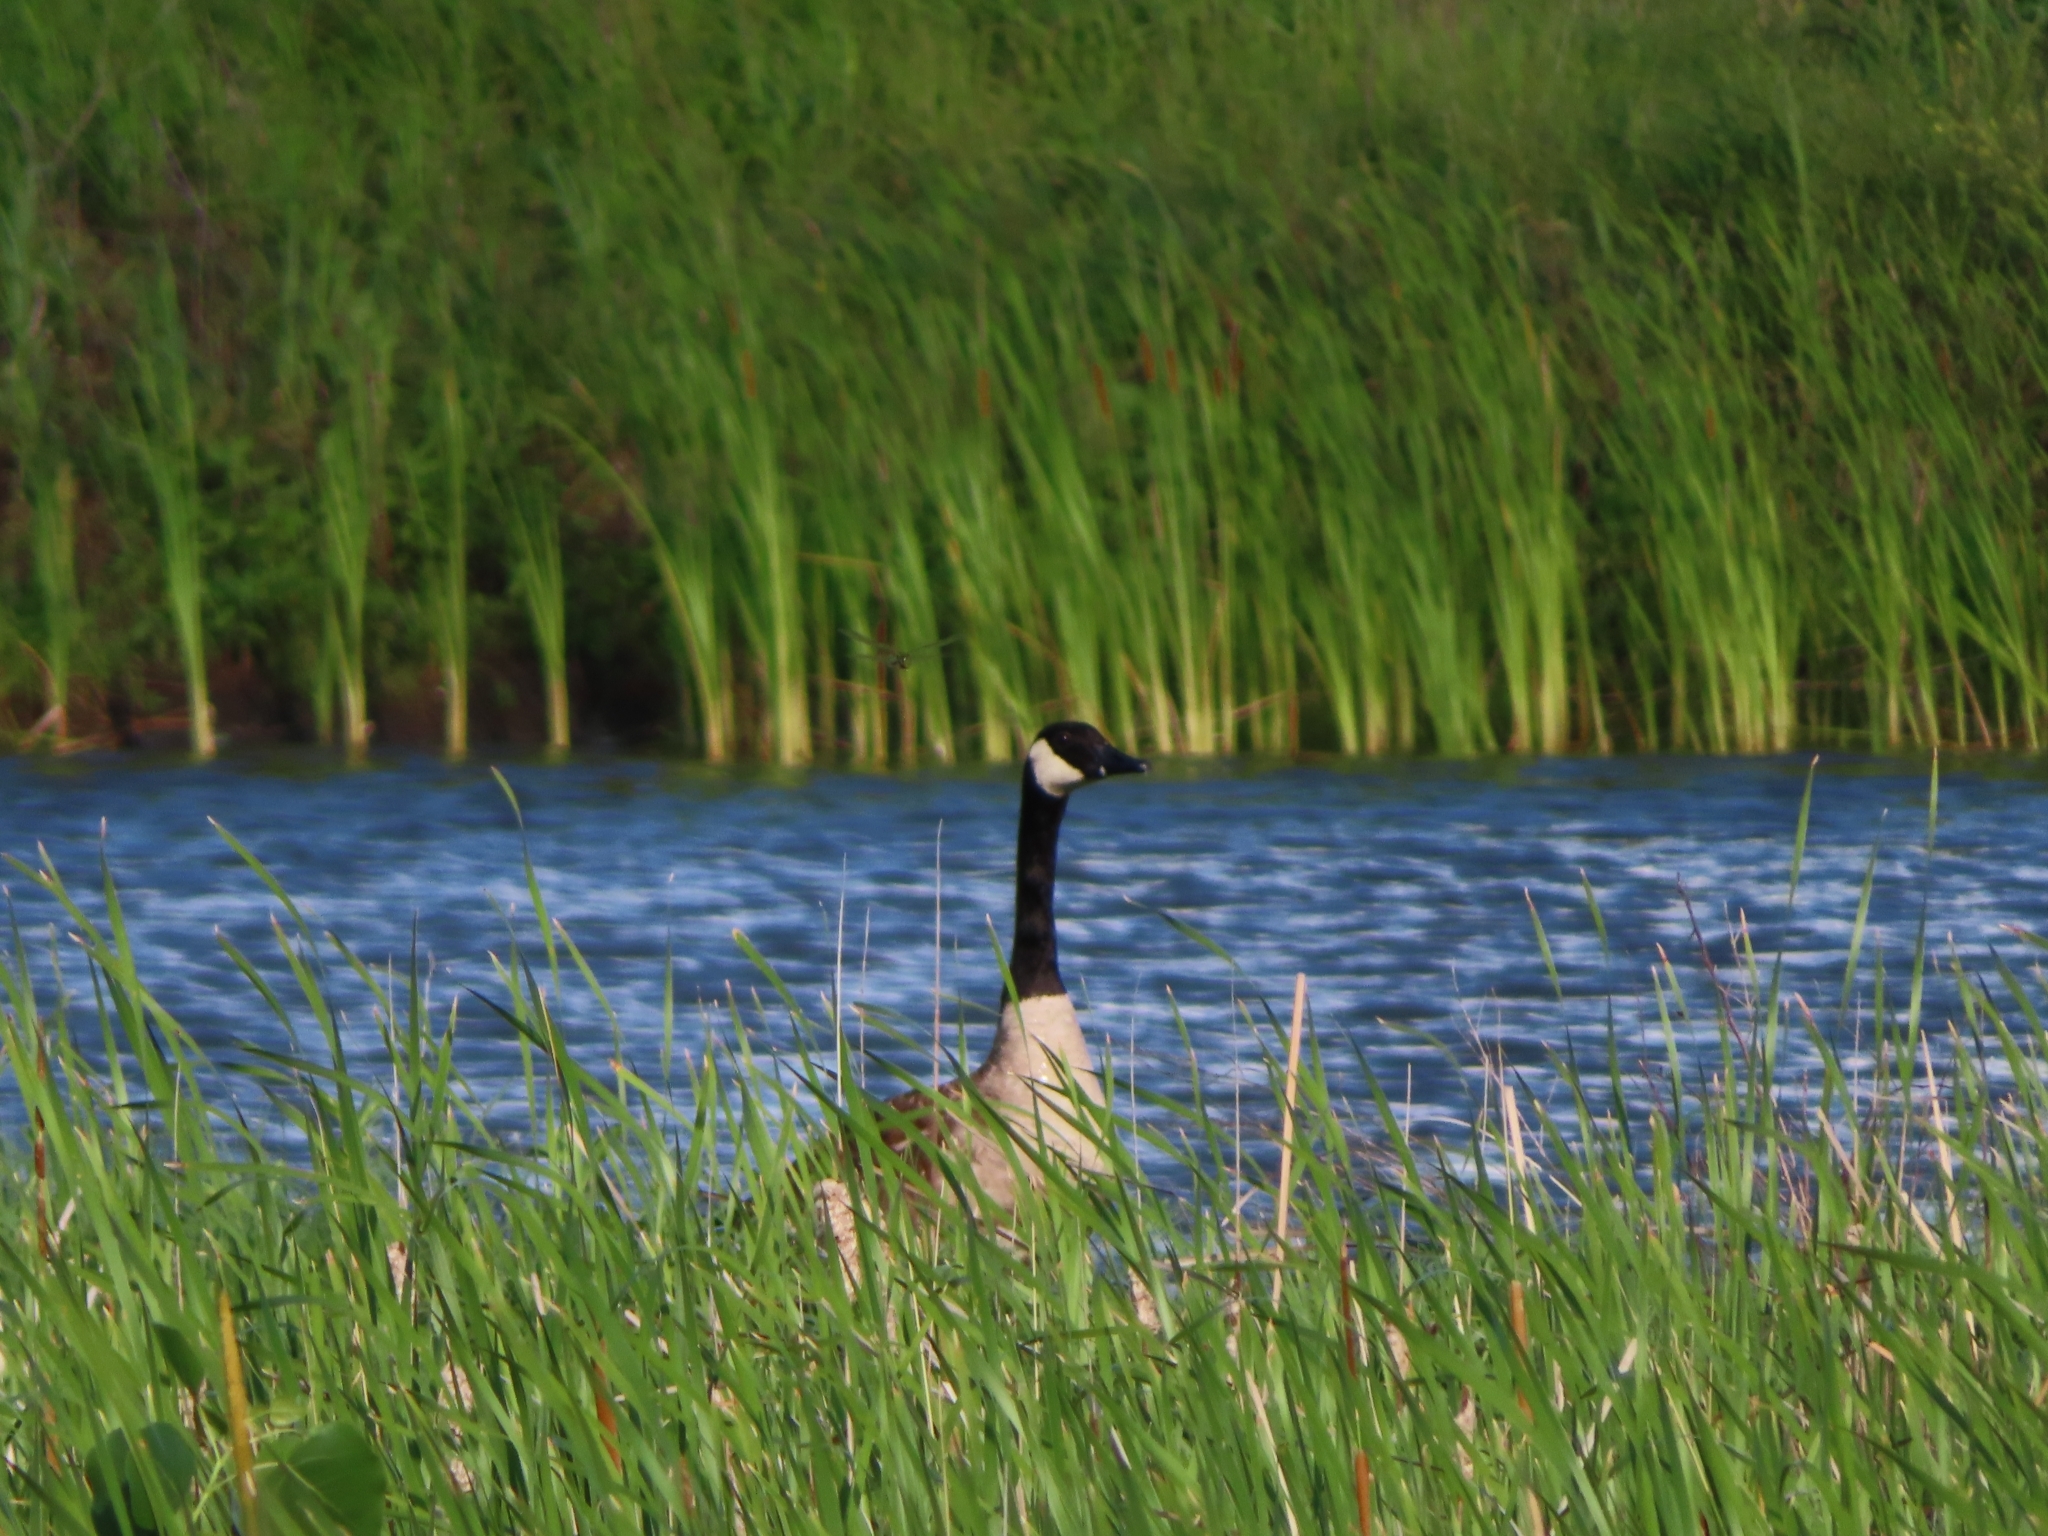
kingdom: Animalia
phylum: Chordata
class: Aves
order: Anseriformes
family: Anatidae
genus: Branta
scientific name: Branta canadensis
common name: Canada goose
